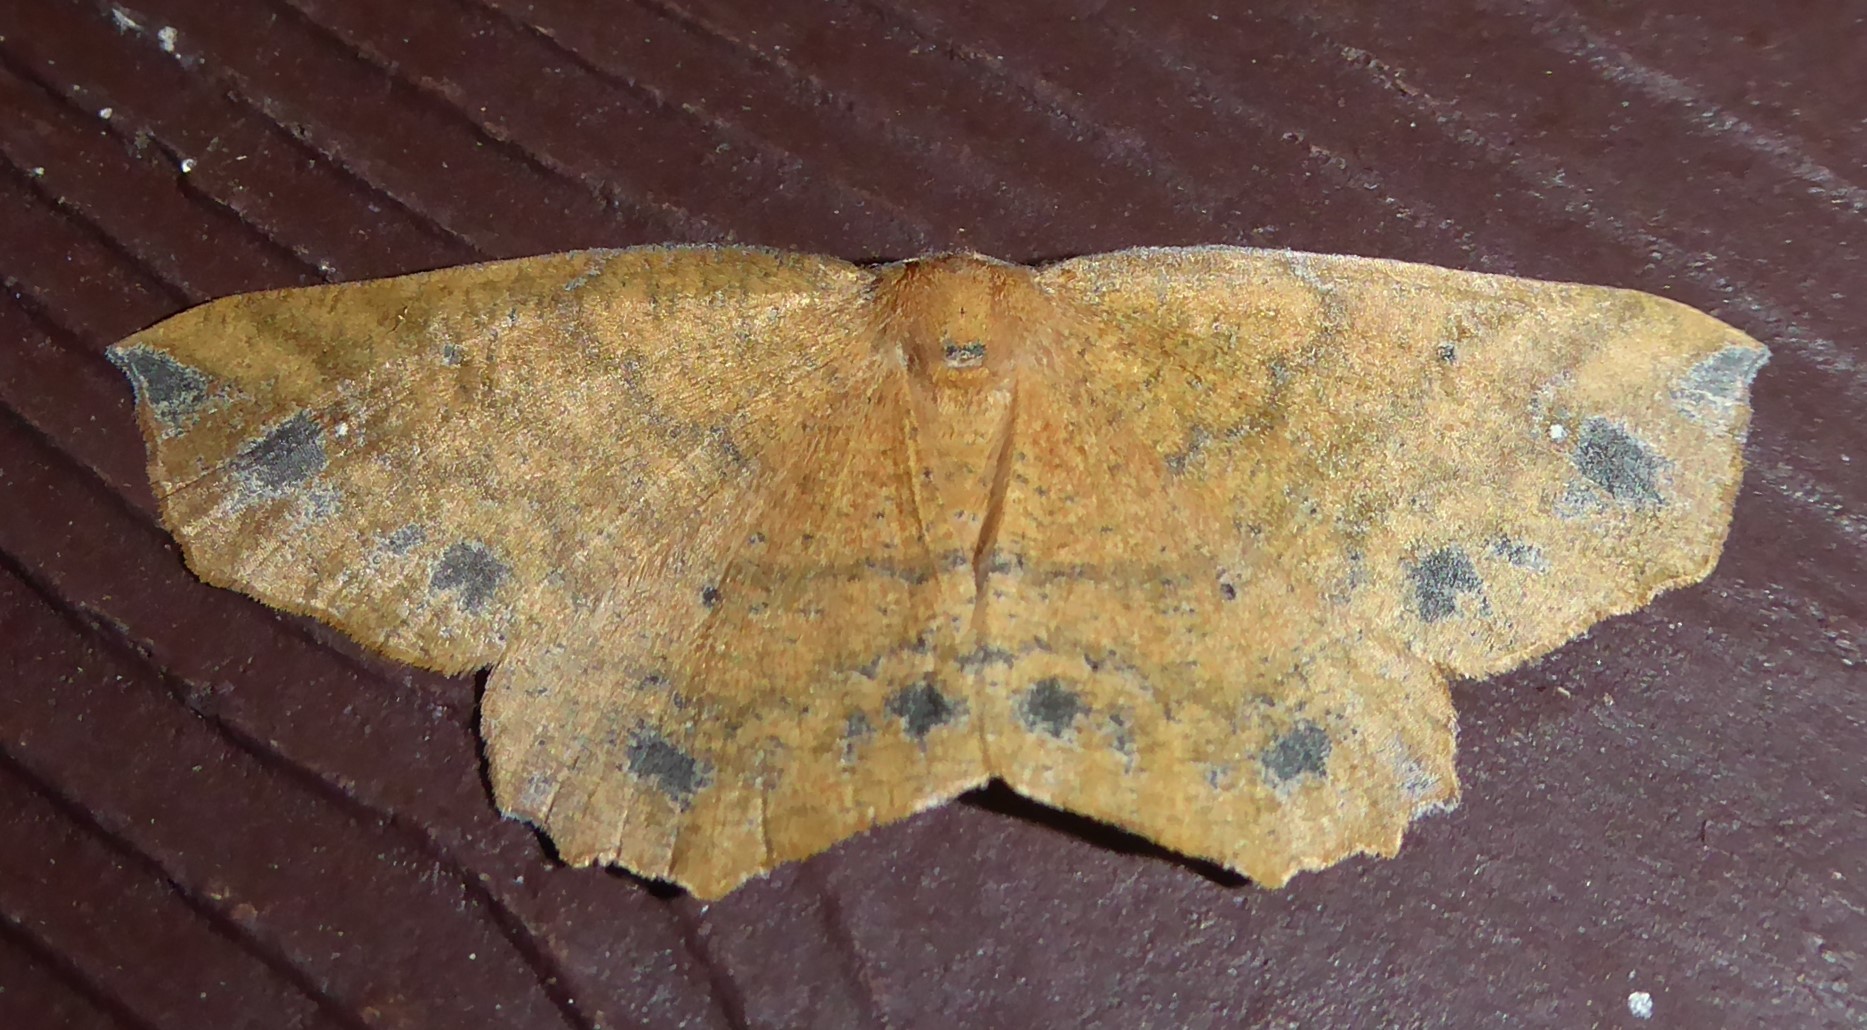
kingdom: Animalia
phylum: Arthropoda
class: Insecta
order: Lepidoptera
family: Geometridae
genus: Xyridacma
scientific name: Xyridacma ustaria
